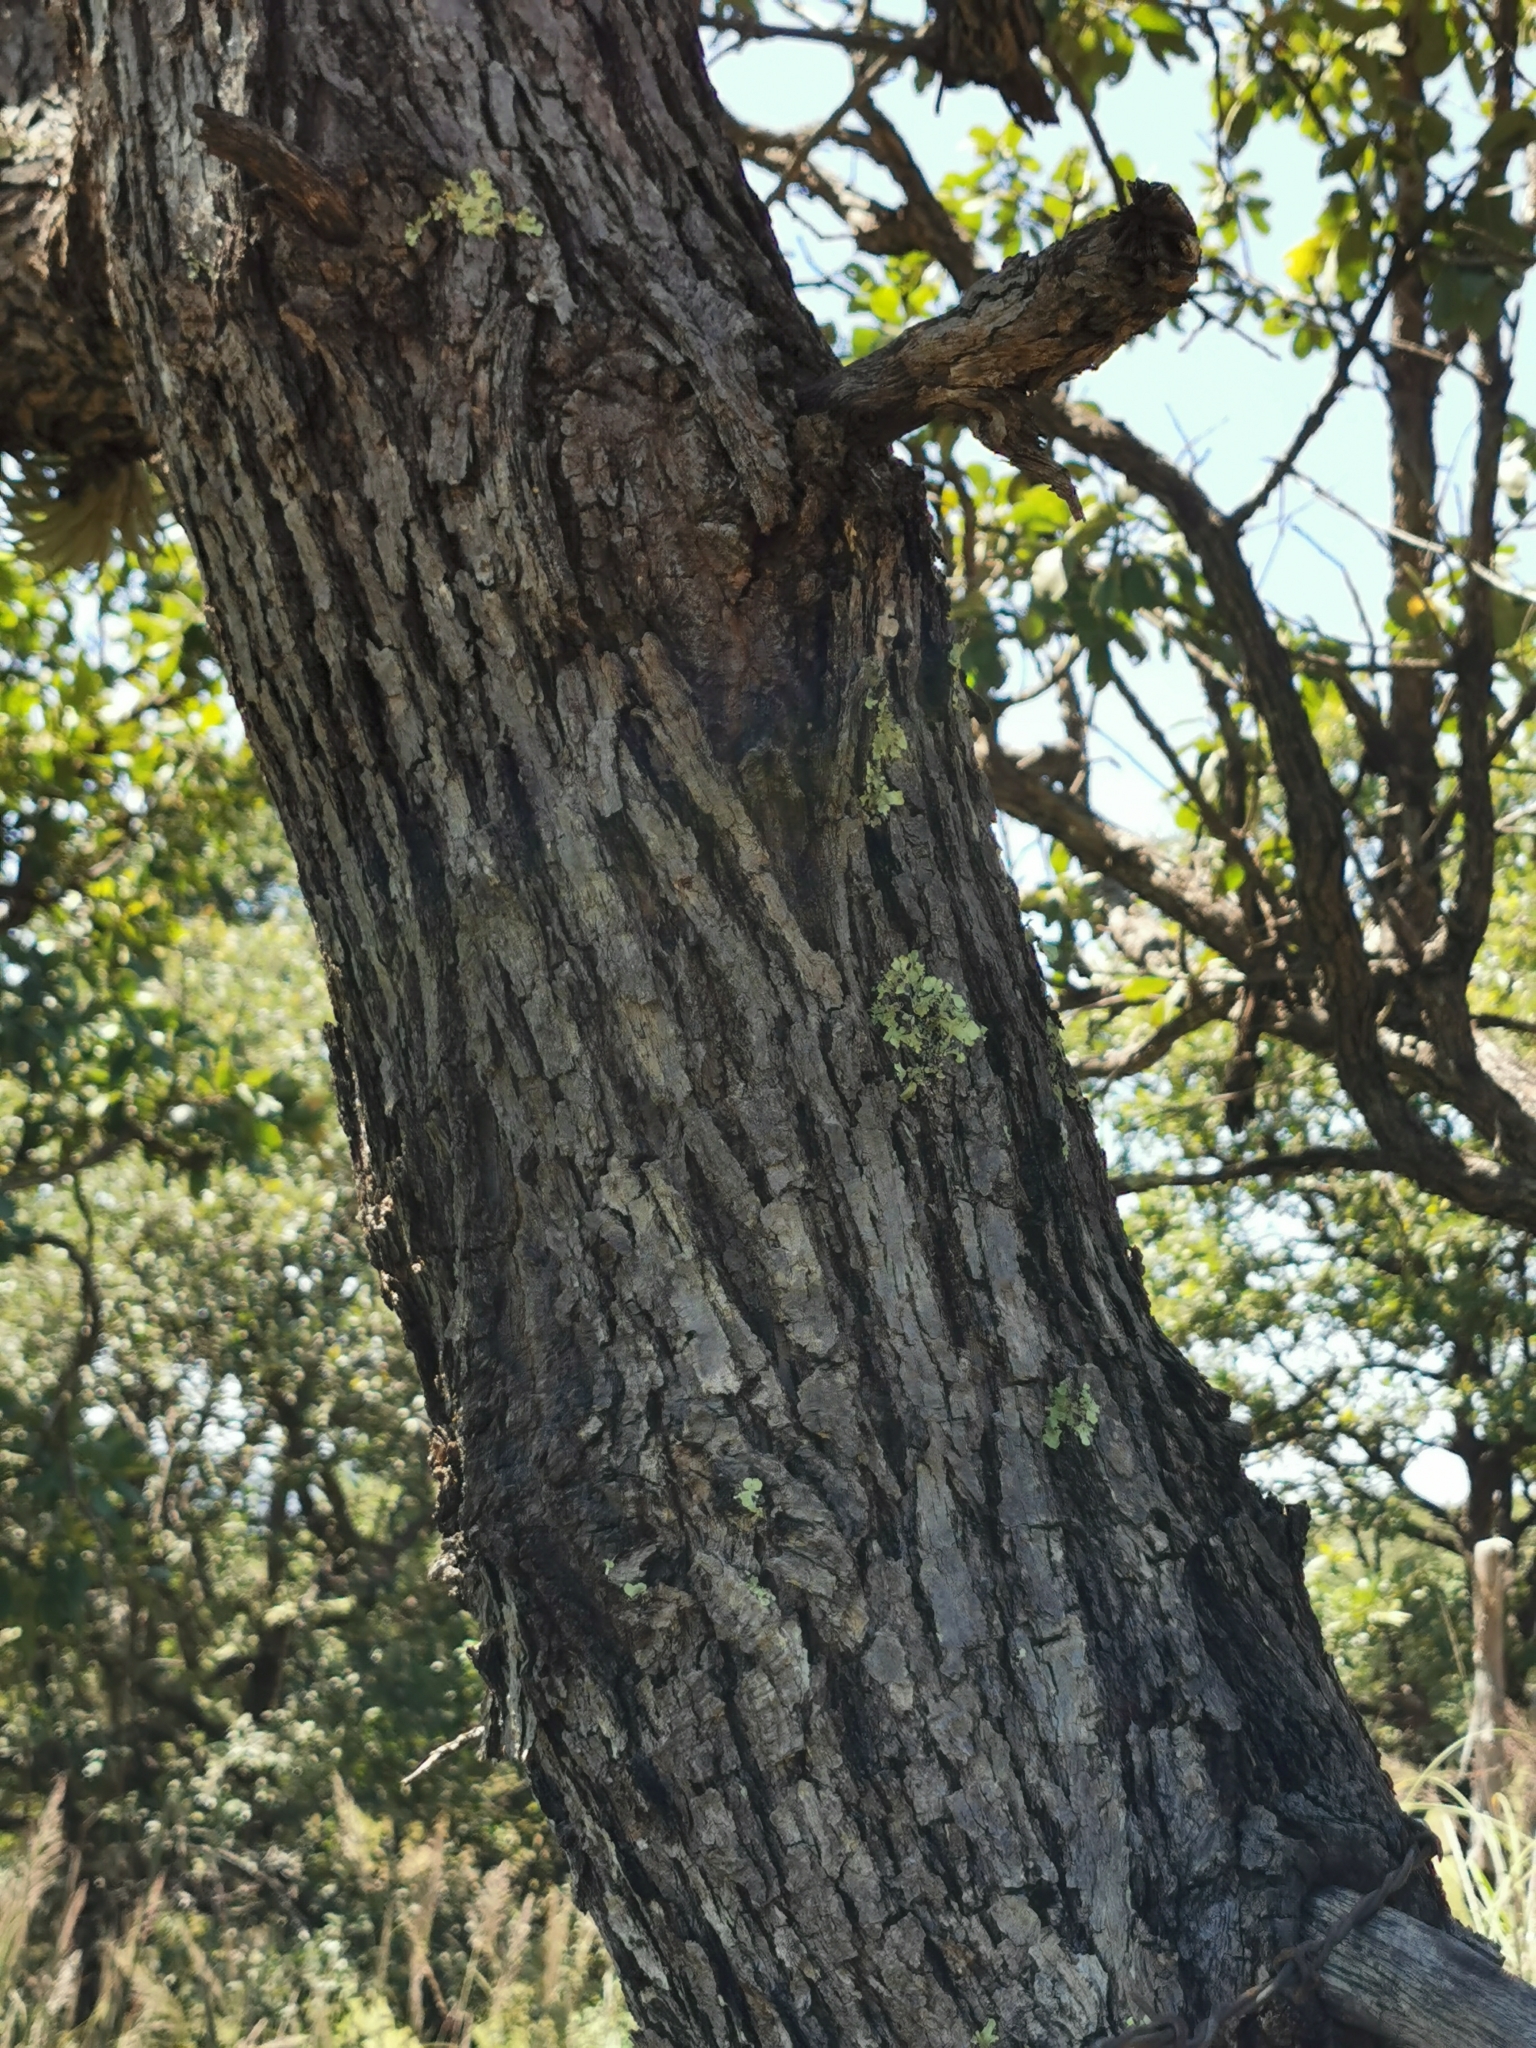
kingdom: Plantae
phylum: Tracheophyta
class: Magnoliopsida
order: Fagales
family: Fagaceae
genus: Quercus
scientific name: Quercus convallata
